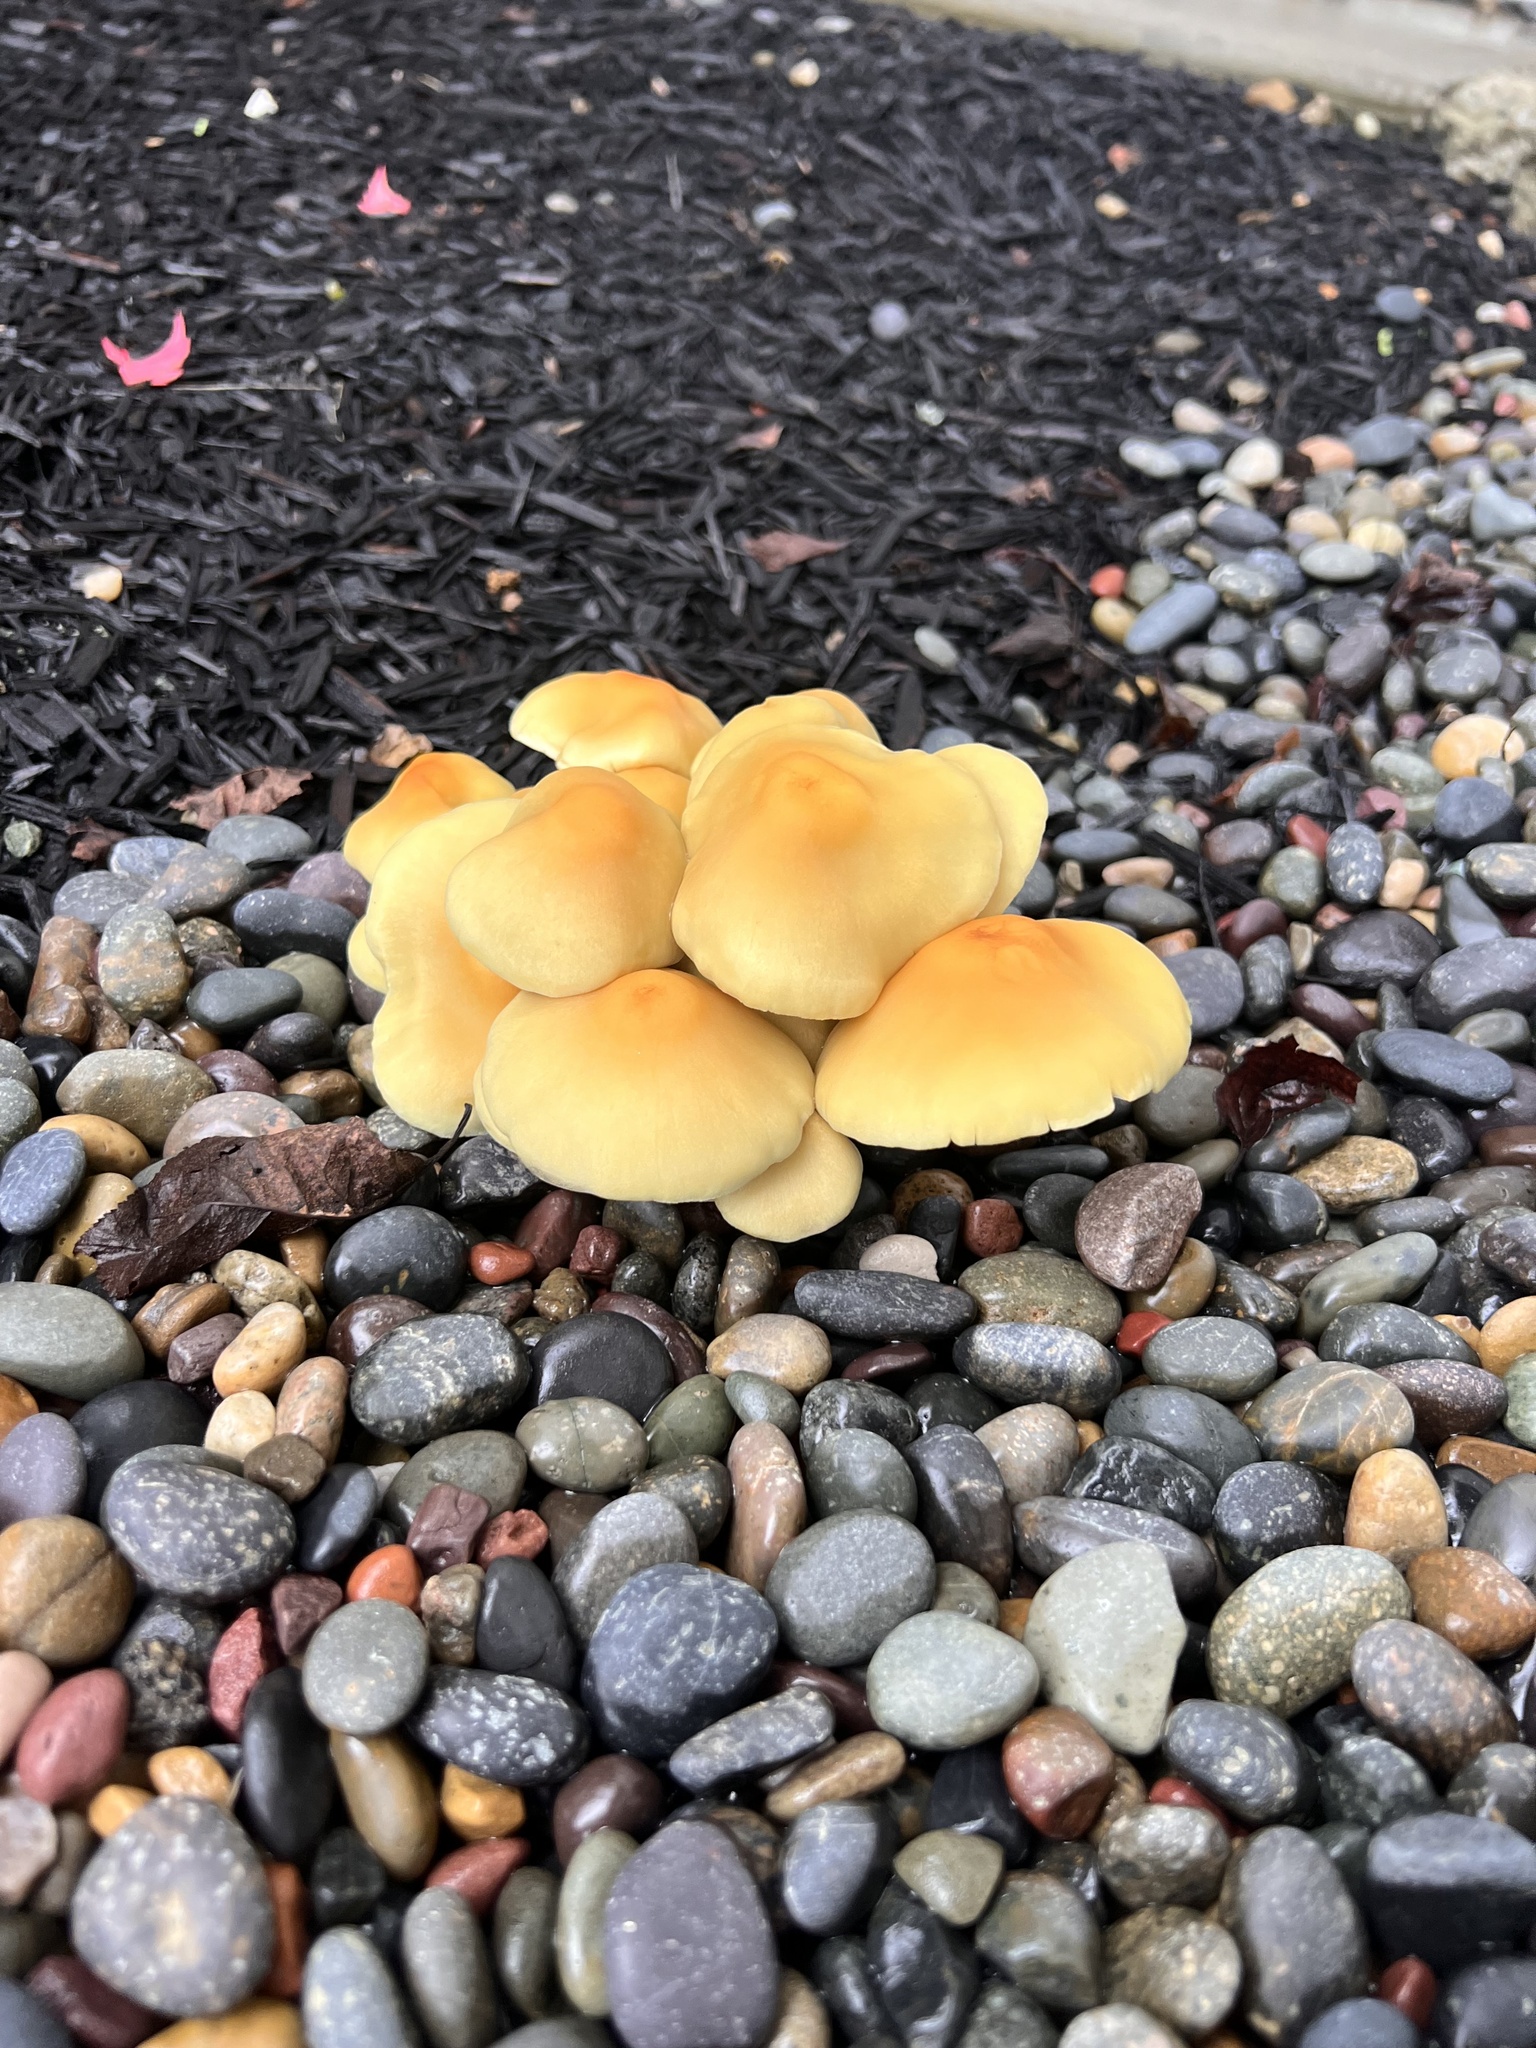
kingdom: Fungi
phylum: Basidiomycota
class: Agaricomycetes
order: Agaricales
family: Strophariaceae
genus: Hypholoma
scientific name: Hypholoma fasciculare
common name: Sulphur tuft
